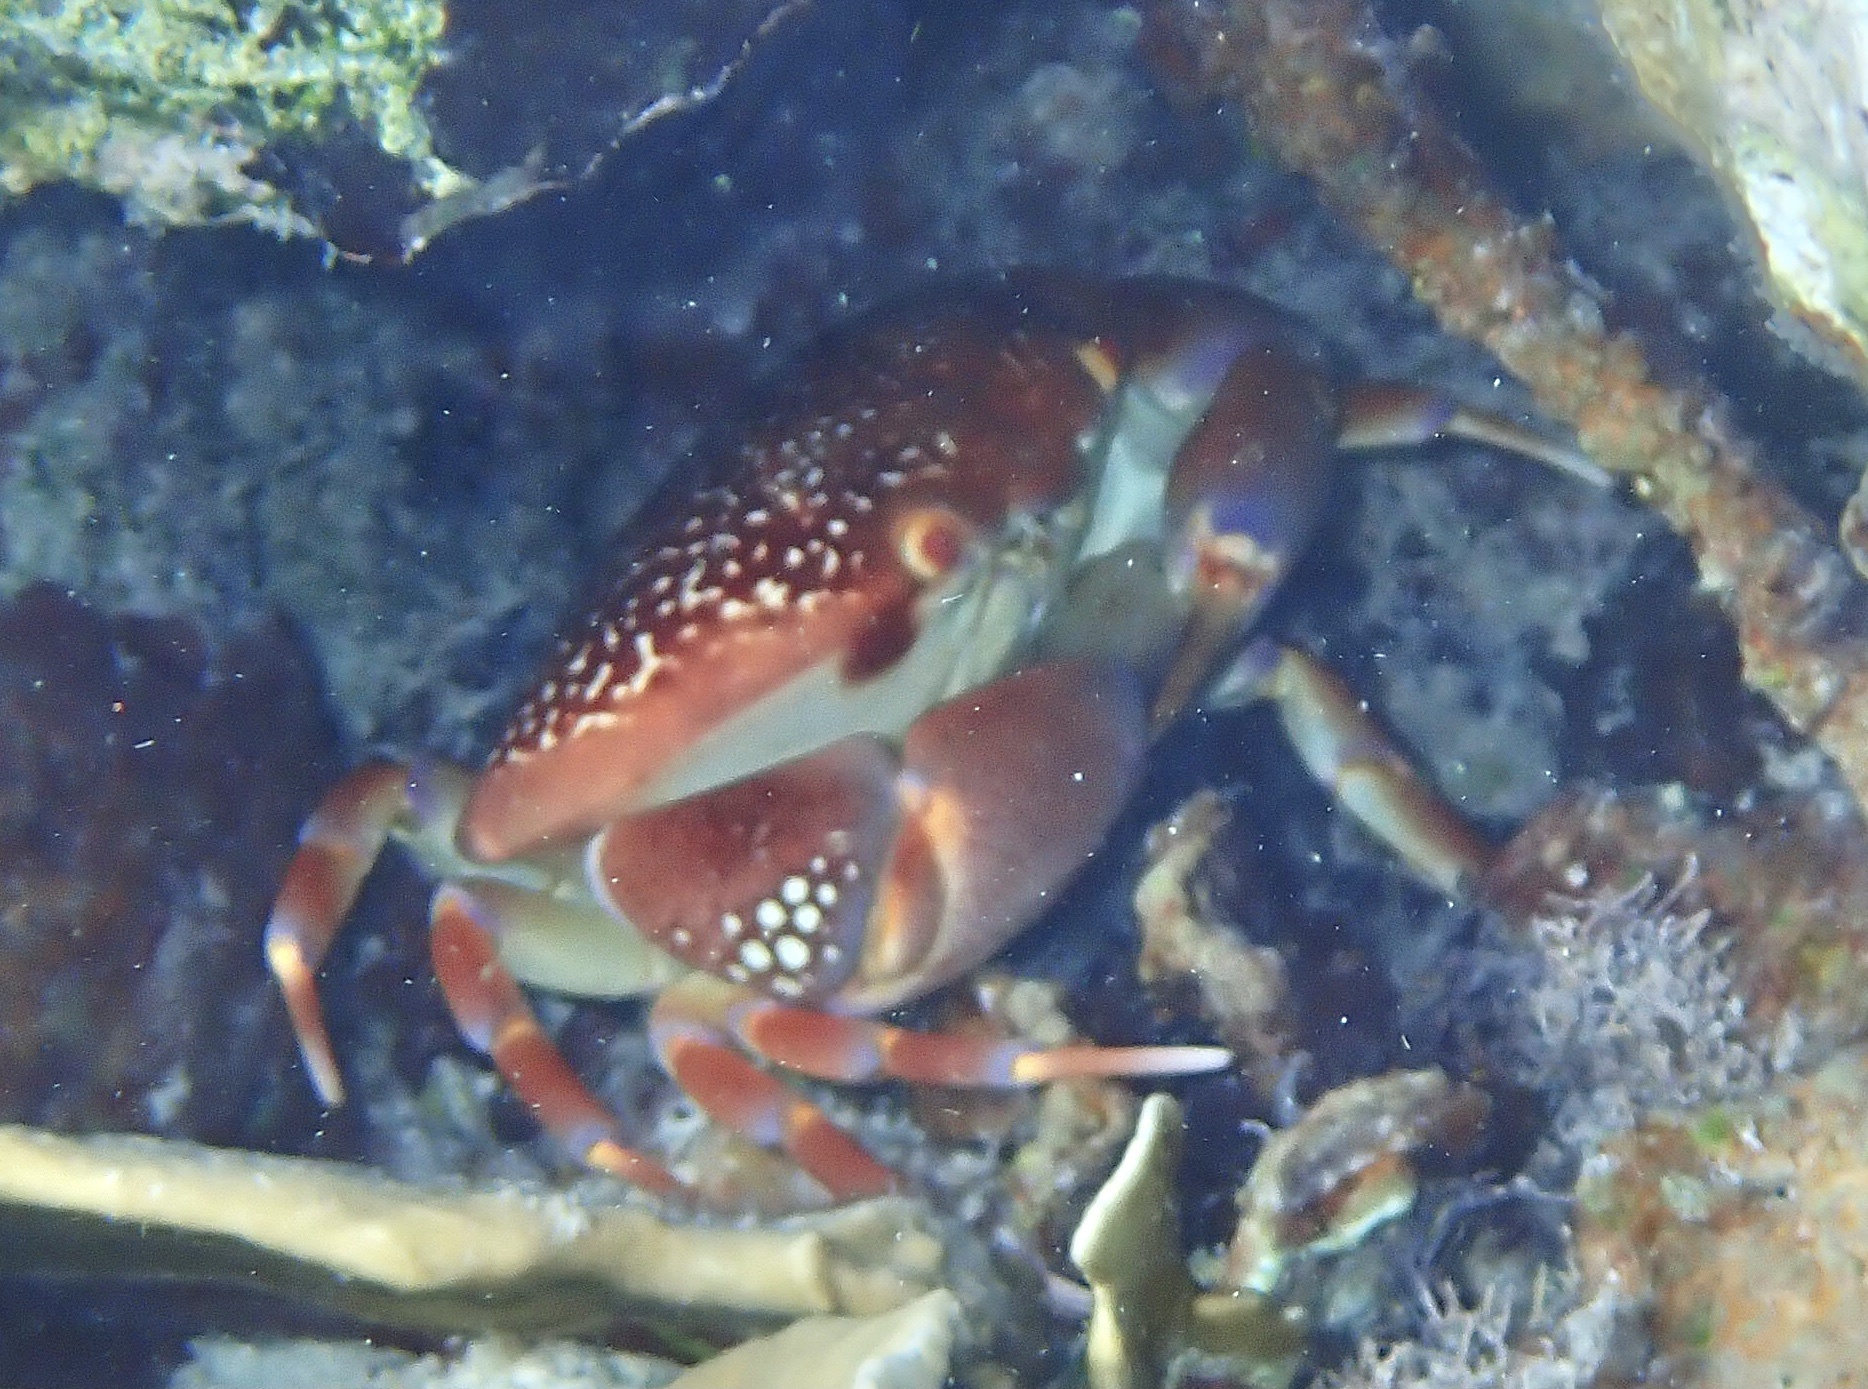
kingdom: Animalia
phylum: Arthropoda
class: Malacostraca
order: Decapoda
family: Carpiliidae
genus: Carpilius
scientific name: Carpilius corallinus
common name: Batwing coral crab
